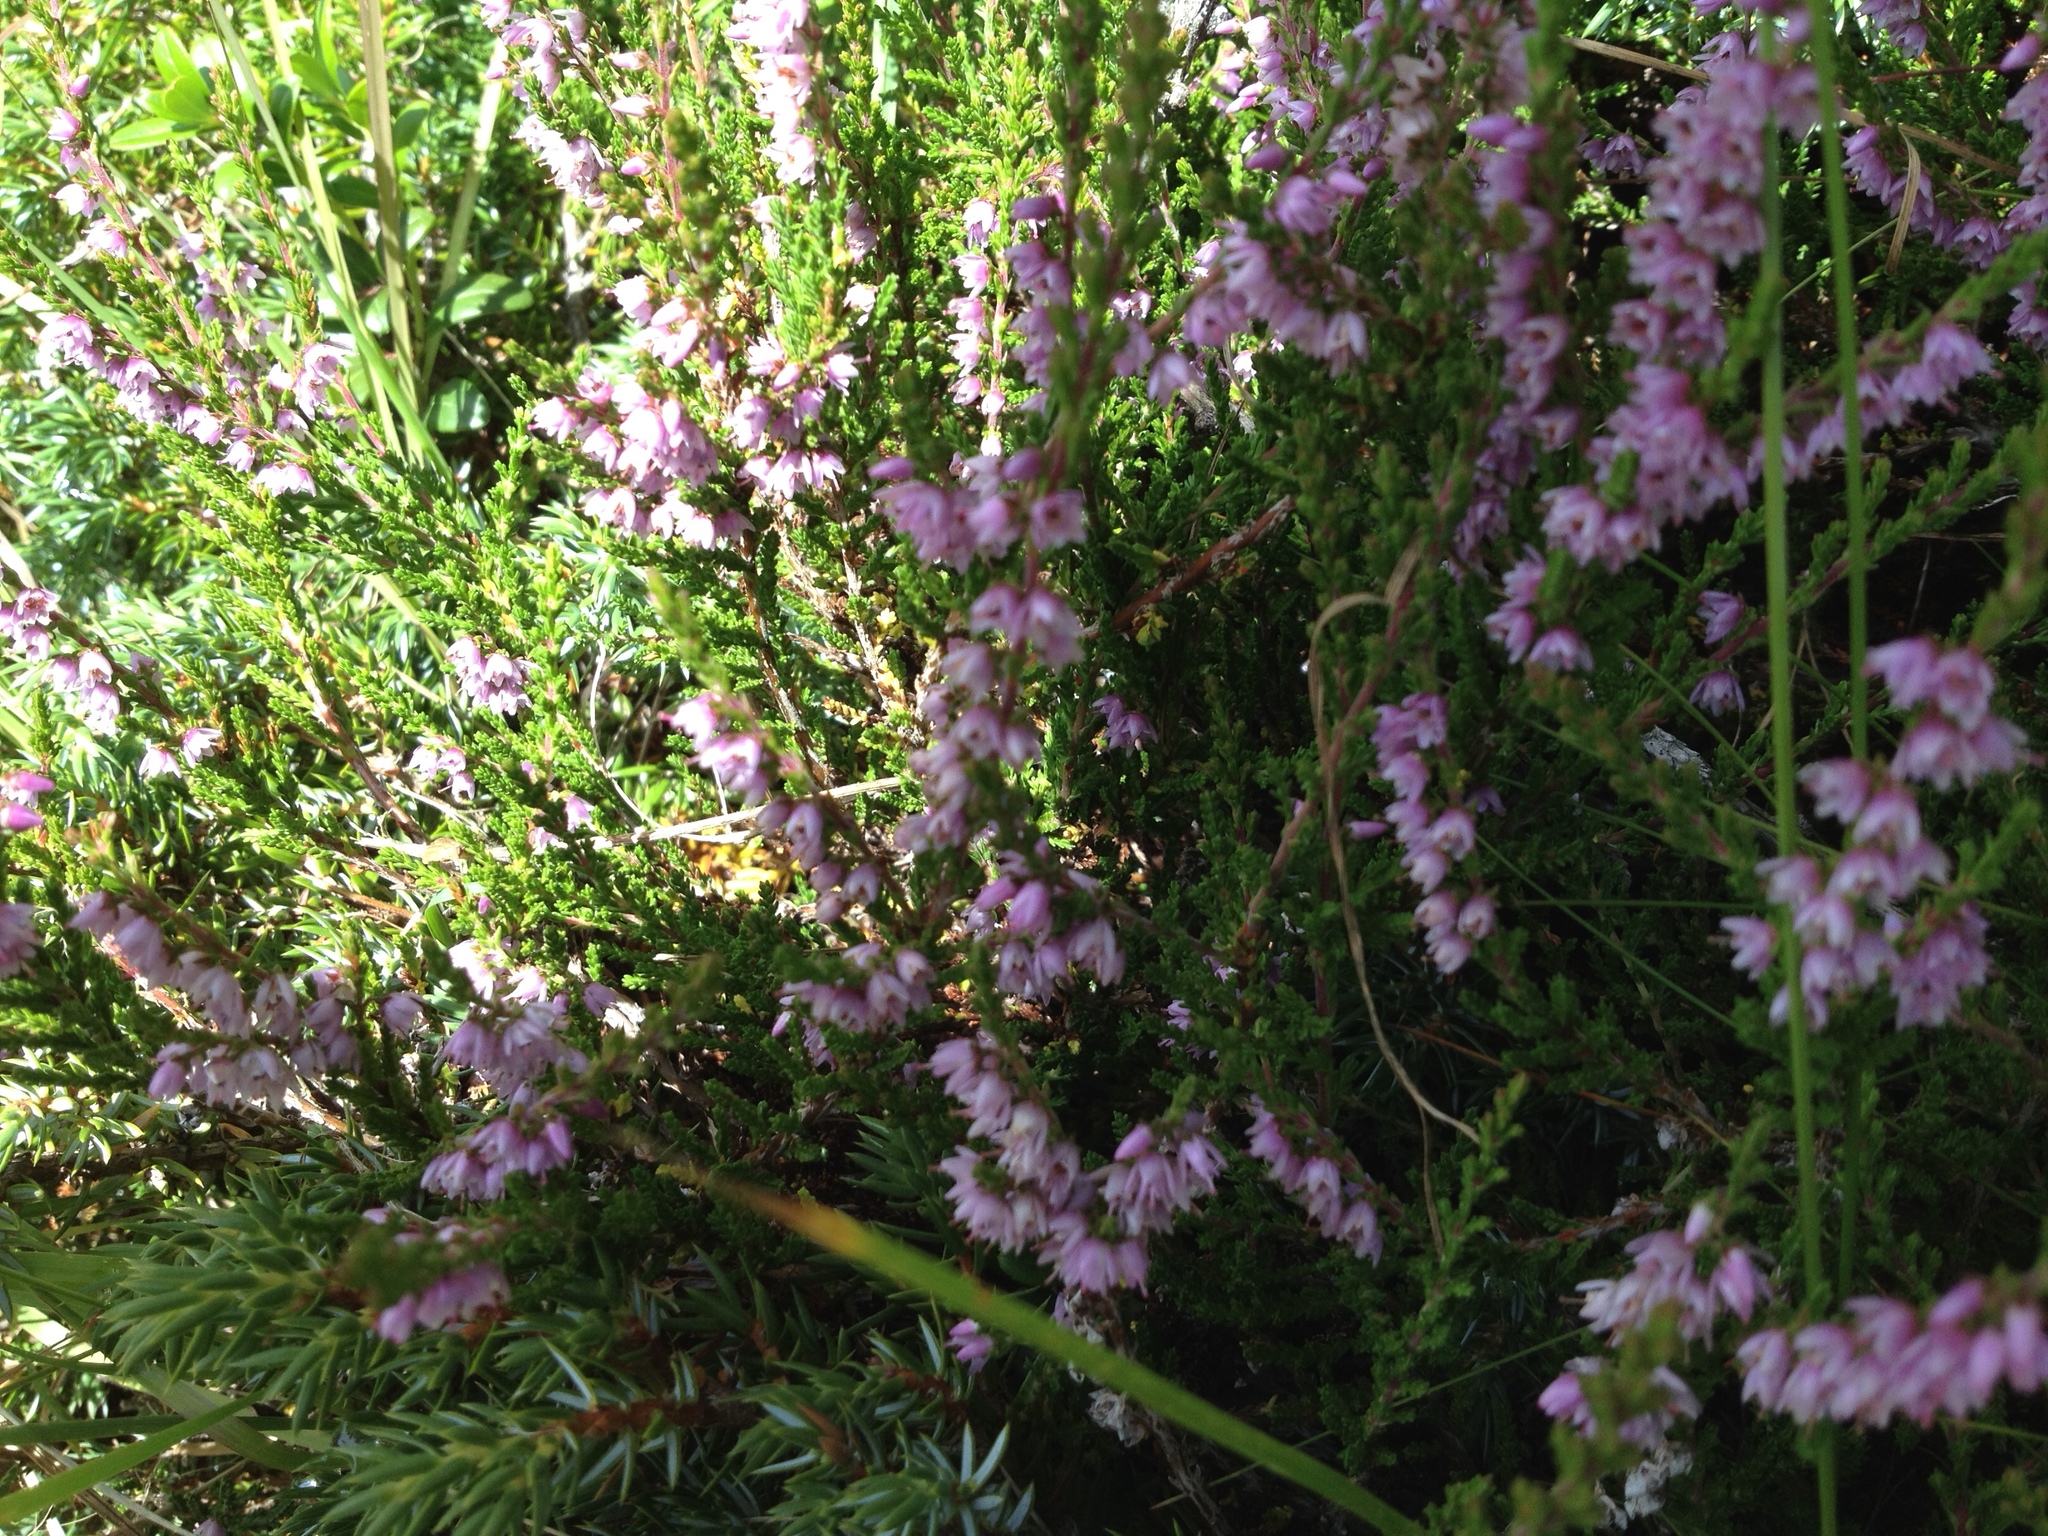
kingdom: Plantae
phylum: Tracheophyta
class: Magnoliopsida
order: Ericales
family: Ericaceae
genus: Calluna
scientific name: Calluna vulgaris
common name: Heather
